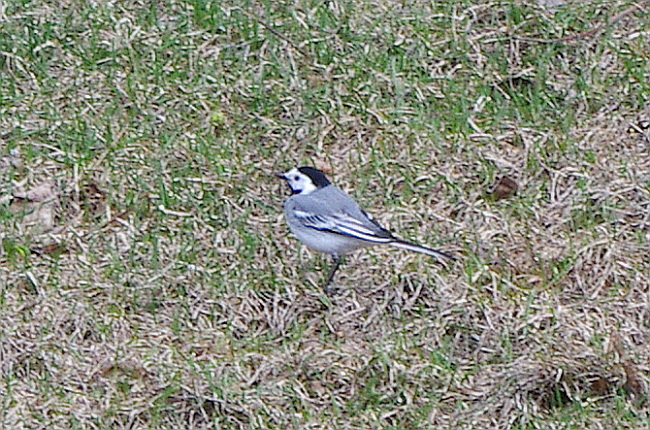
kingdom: Animalia
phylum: Chordata
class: Aves
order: Passeriformes
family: Motacillidae
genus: Motacilla
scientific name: Motacilla alba
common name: White wagtail
